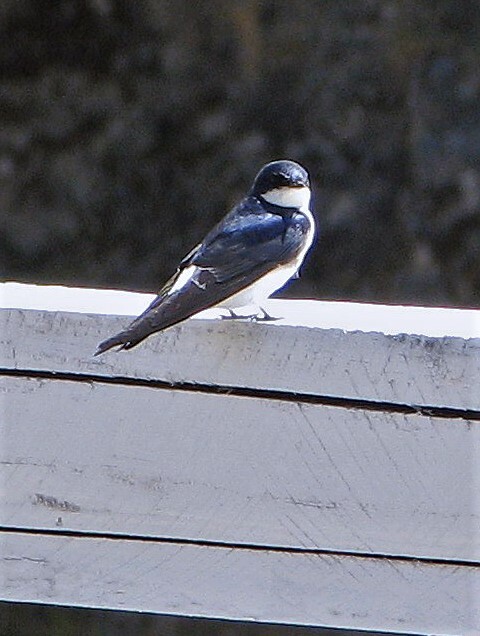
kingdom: Animalia
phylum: Chordata
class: Aves
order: Passeriformes
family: Hirundinidae
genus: Tachycineta
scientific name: Tachycineta leucopyga
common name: Chilean swallow
